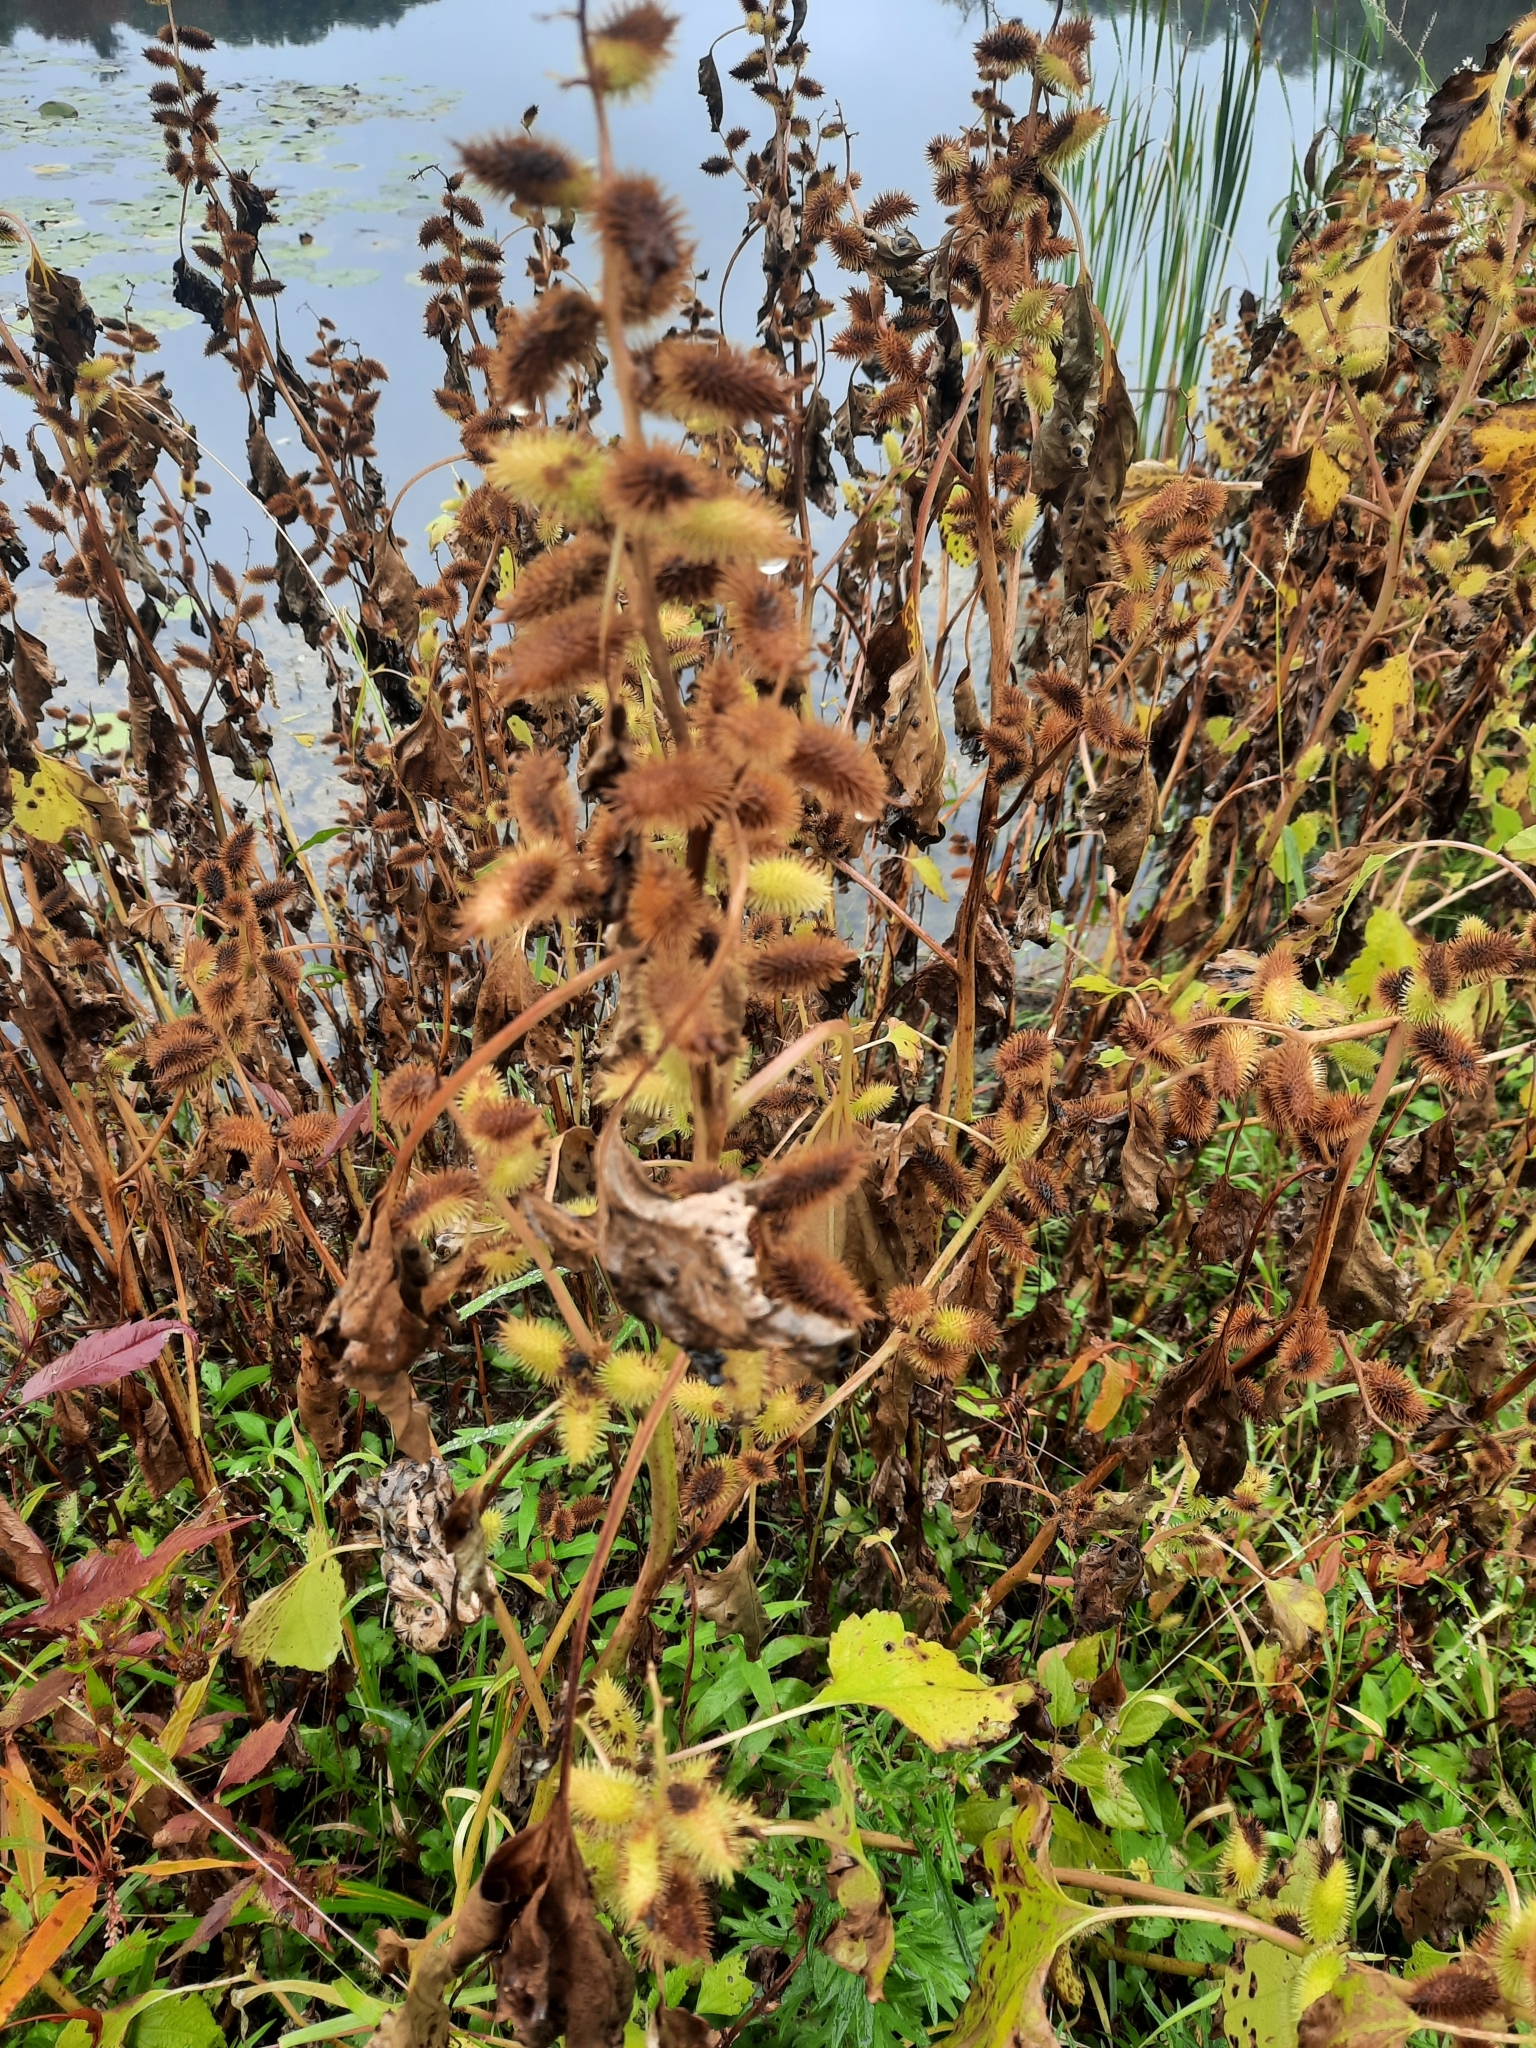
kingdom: Plantae
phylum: Tracheophyta
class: Magnoliopsida
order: Asterales
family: Asteraceae
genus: Xanthium
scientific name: Xanthium strumarium
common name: Rough cocklebur
